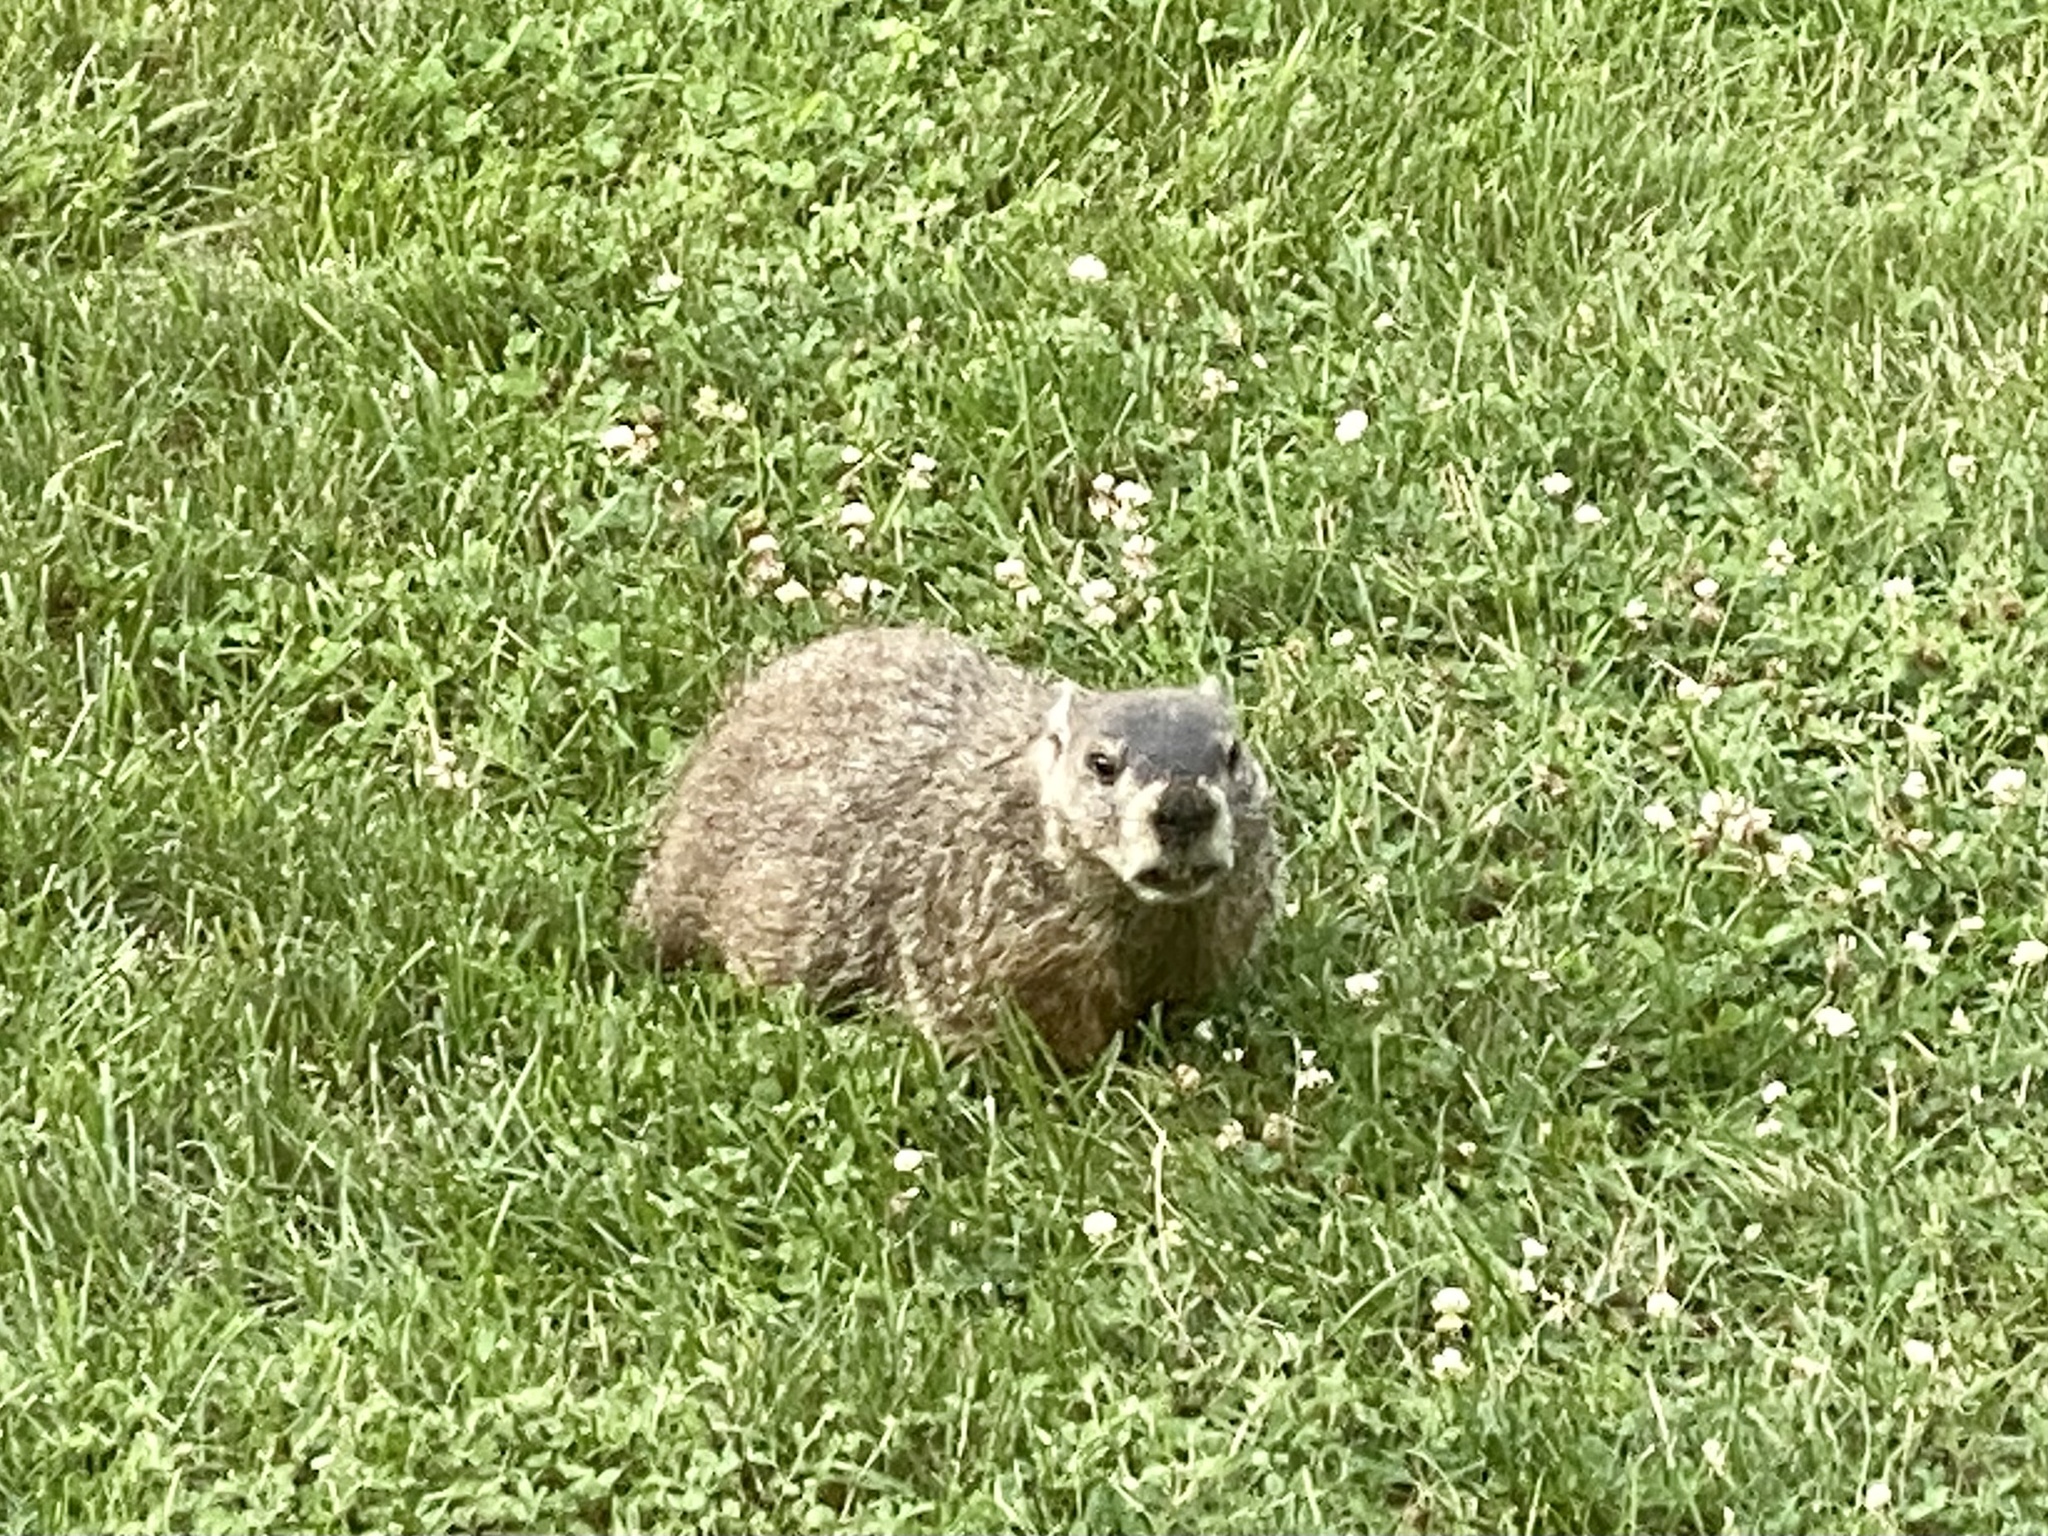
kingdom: Animalia
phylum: Chordata
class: Mammalia
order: Rodentia
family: Sciuridae
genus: Marmota
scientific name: Marmota monax
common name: Groundhog
